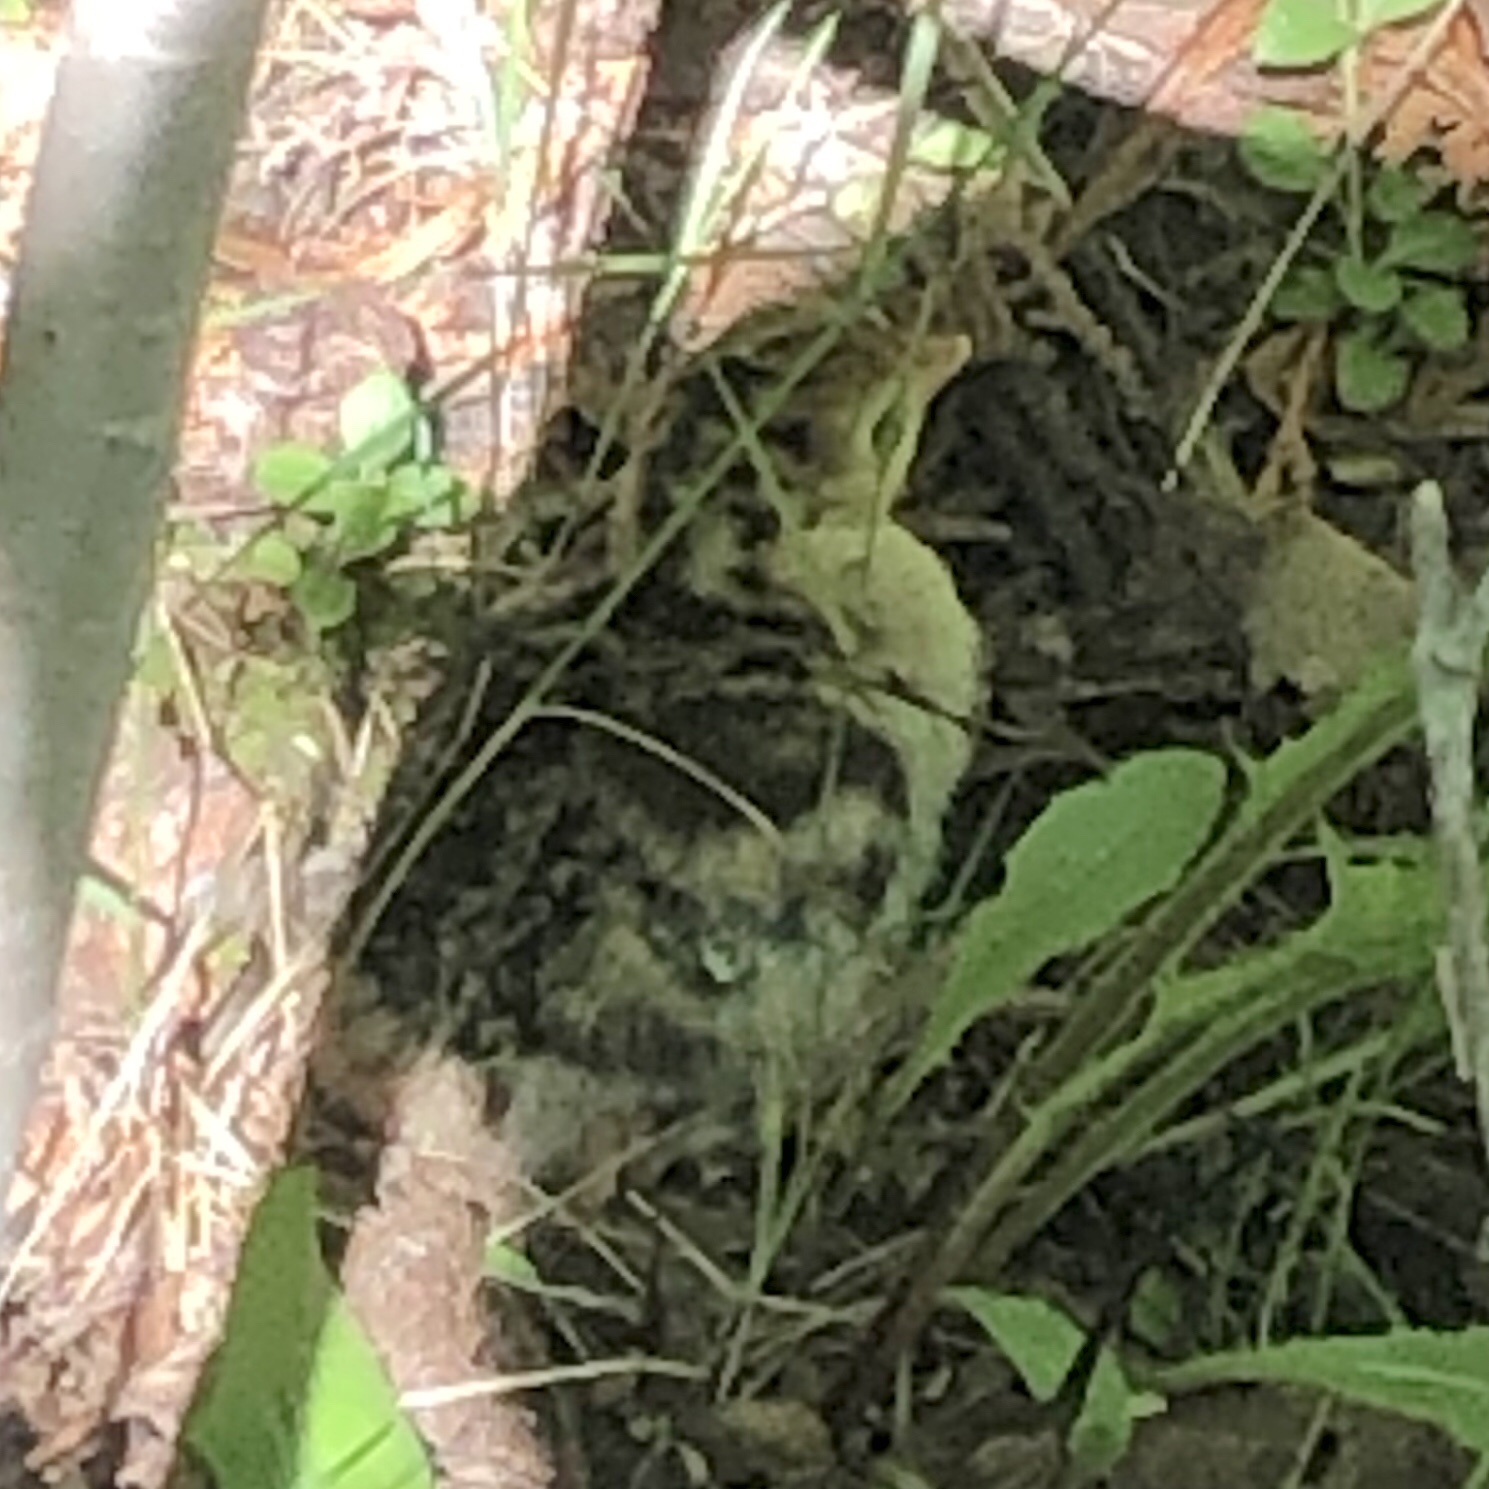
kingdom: Animalia
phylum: Chordata
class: Aves
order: Galliformes
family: Phasianidae
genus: Meleagris
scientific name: Meleagris gallopavo
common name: Wild turkey
